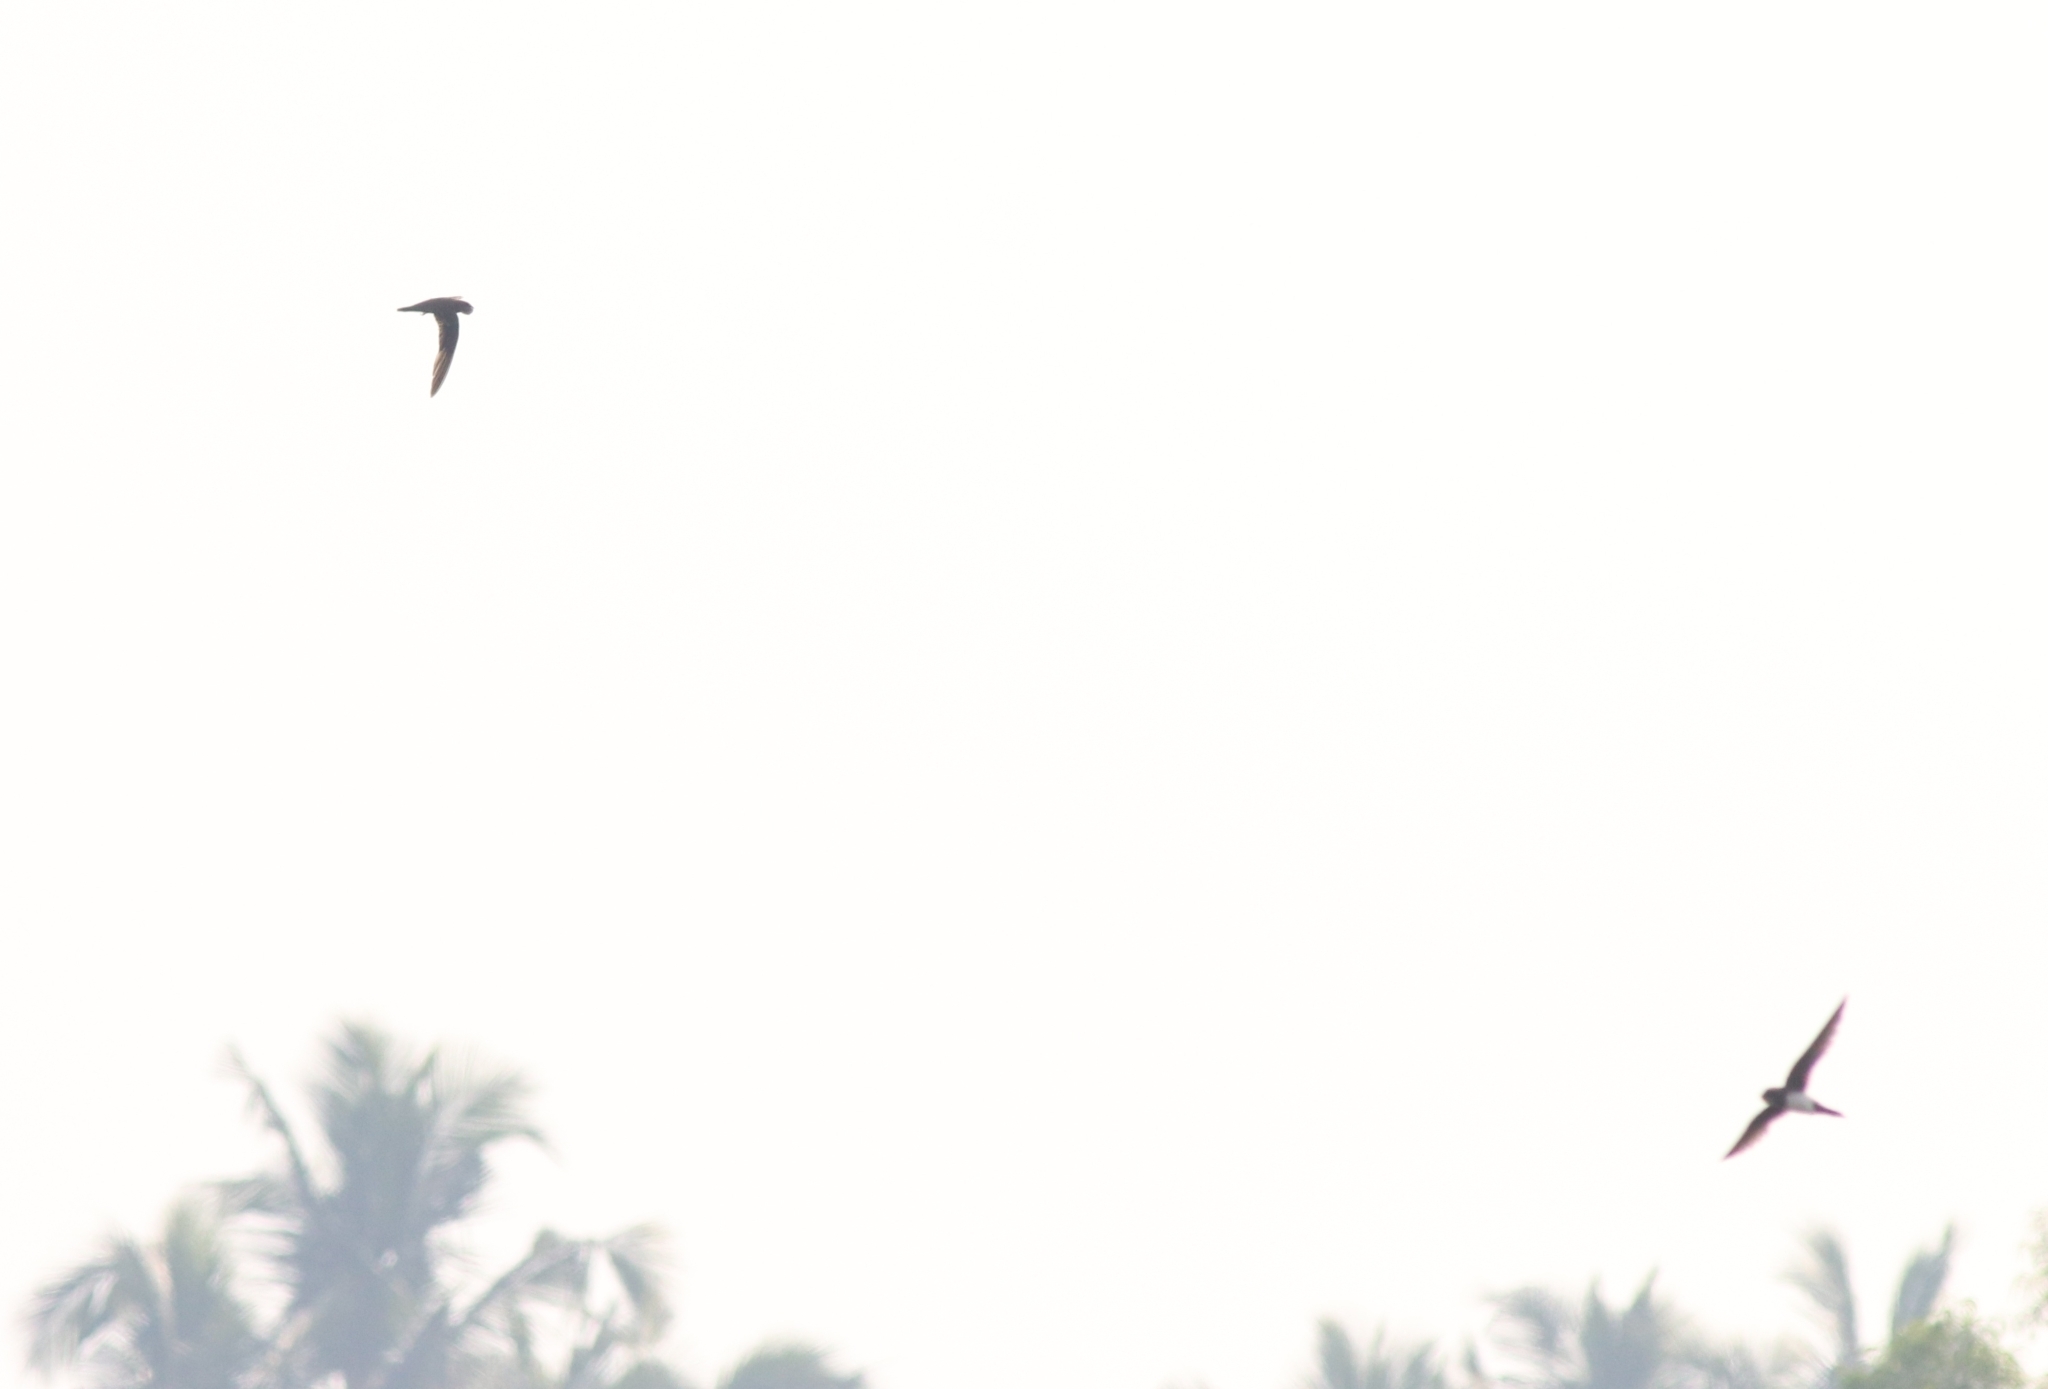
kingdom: Animalia
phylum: Chordata
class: Aves
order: Apodiformes
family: Apodidae
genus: Tachymarptis
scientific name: Tachymarptis melba
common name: Alpine swift
